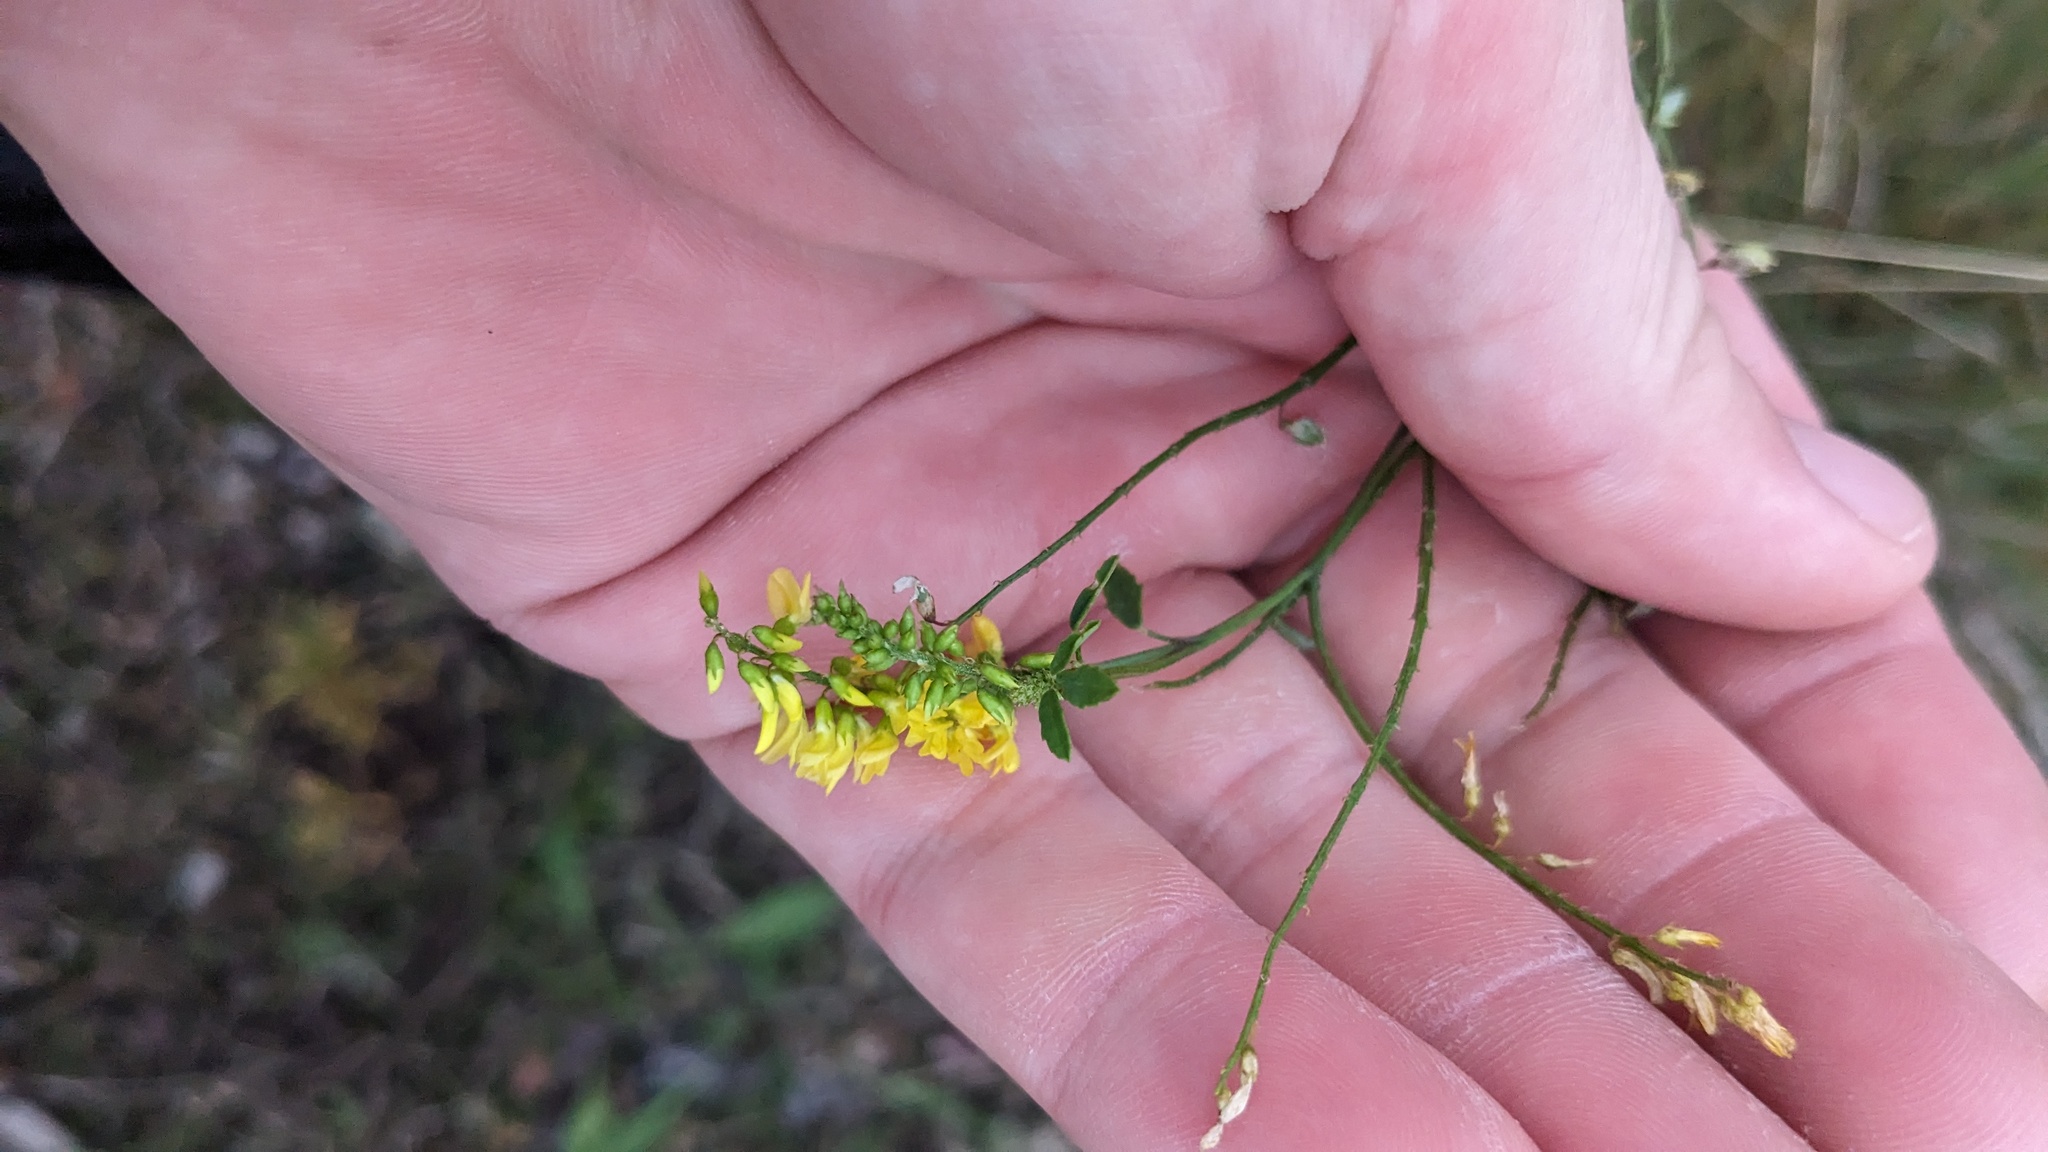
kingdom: Plantae
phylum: Tracheophyta
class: Magnoliopsida
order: Fabales
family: Fabaceae
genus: Melilotus
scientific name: Melilotus officinalis
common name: Sweetclover
